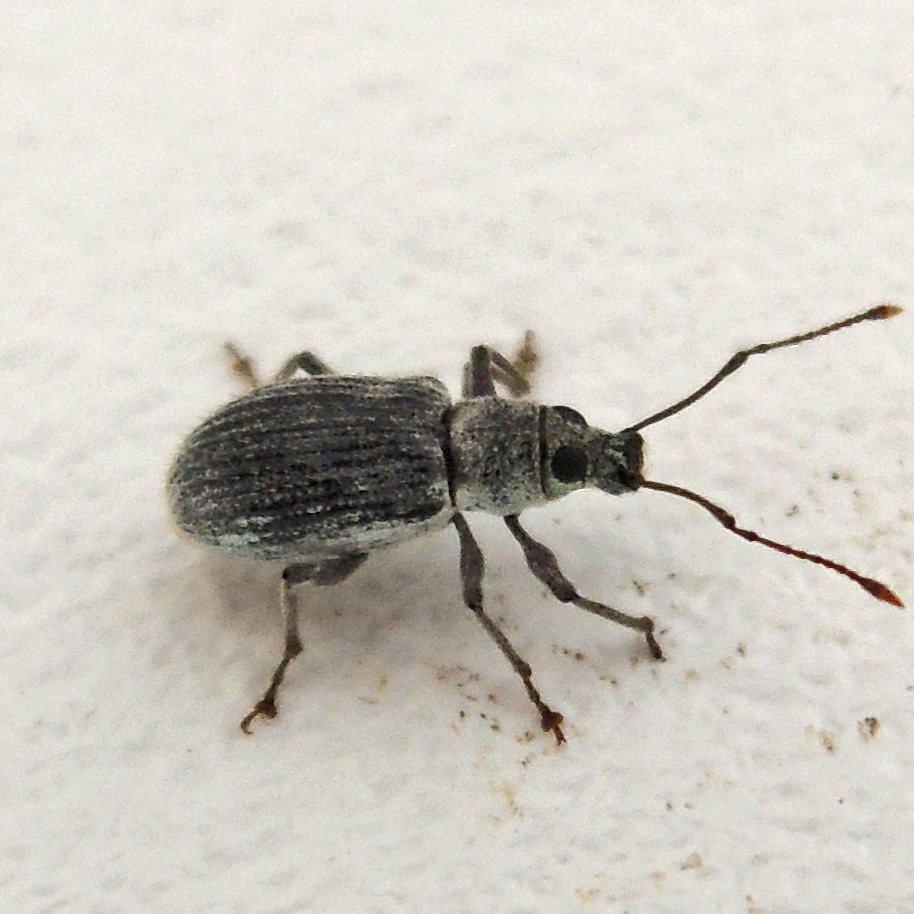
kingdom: Animalia
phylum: Arthropoda
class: Insecta
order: Coleoptera
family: Curculionidae
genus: Cyrtepistomus
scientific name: Cyrtepistomus castaneus
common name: Weevil
